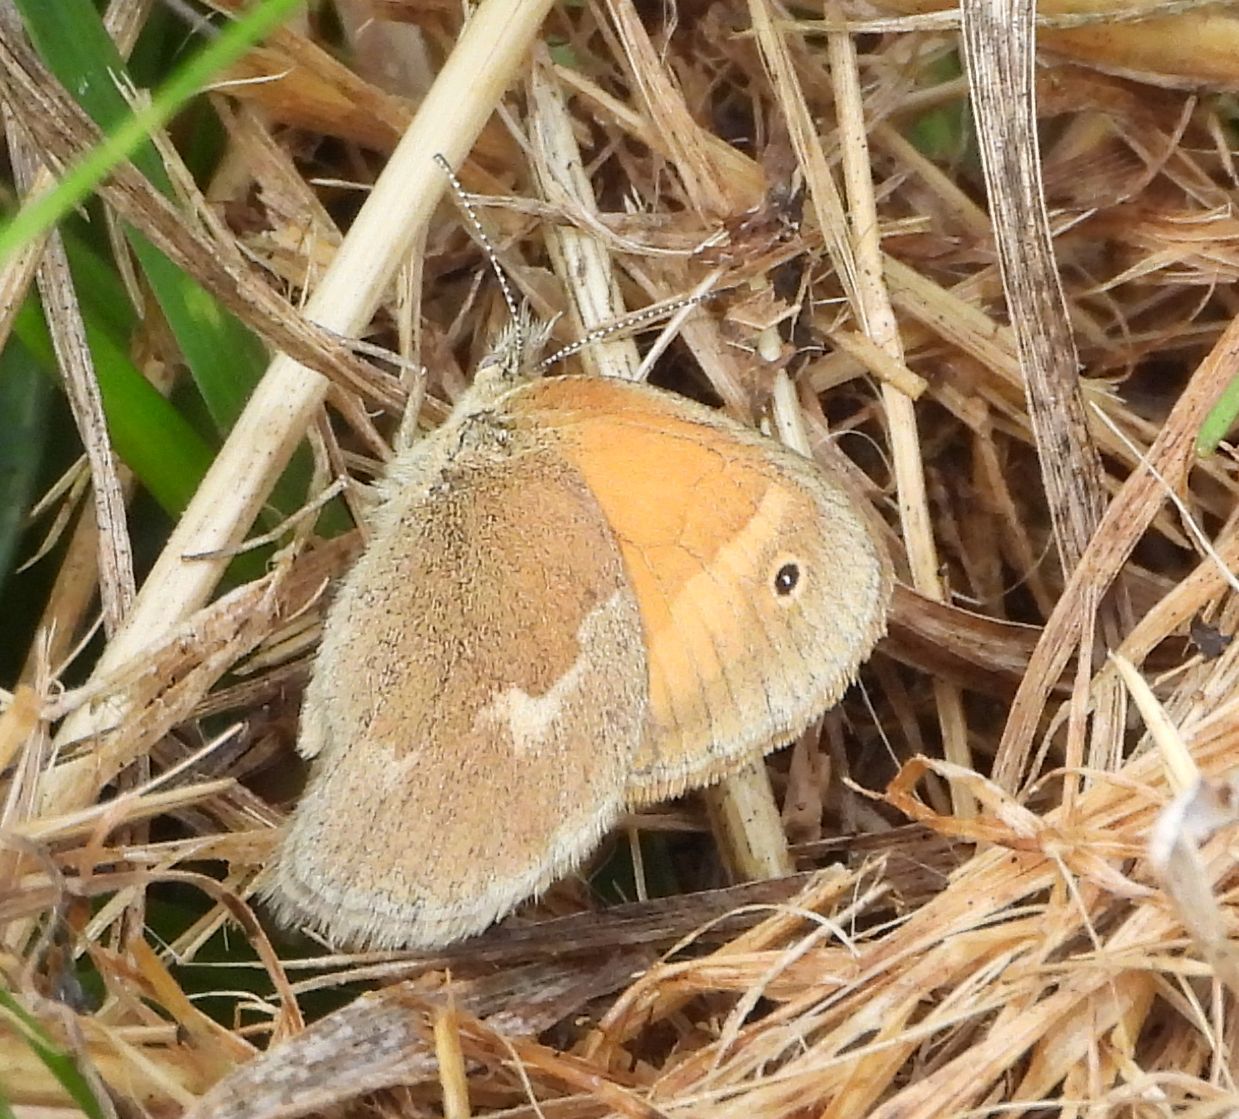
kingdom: Animalia
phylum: Arthropoda
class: Insecta
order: Lepidoptera
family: Nymphalidae
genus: Coenonympha
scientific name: Coenonympha california
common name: Common ringlet
